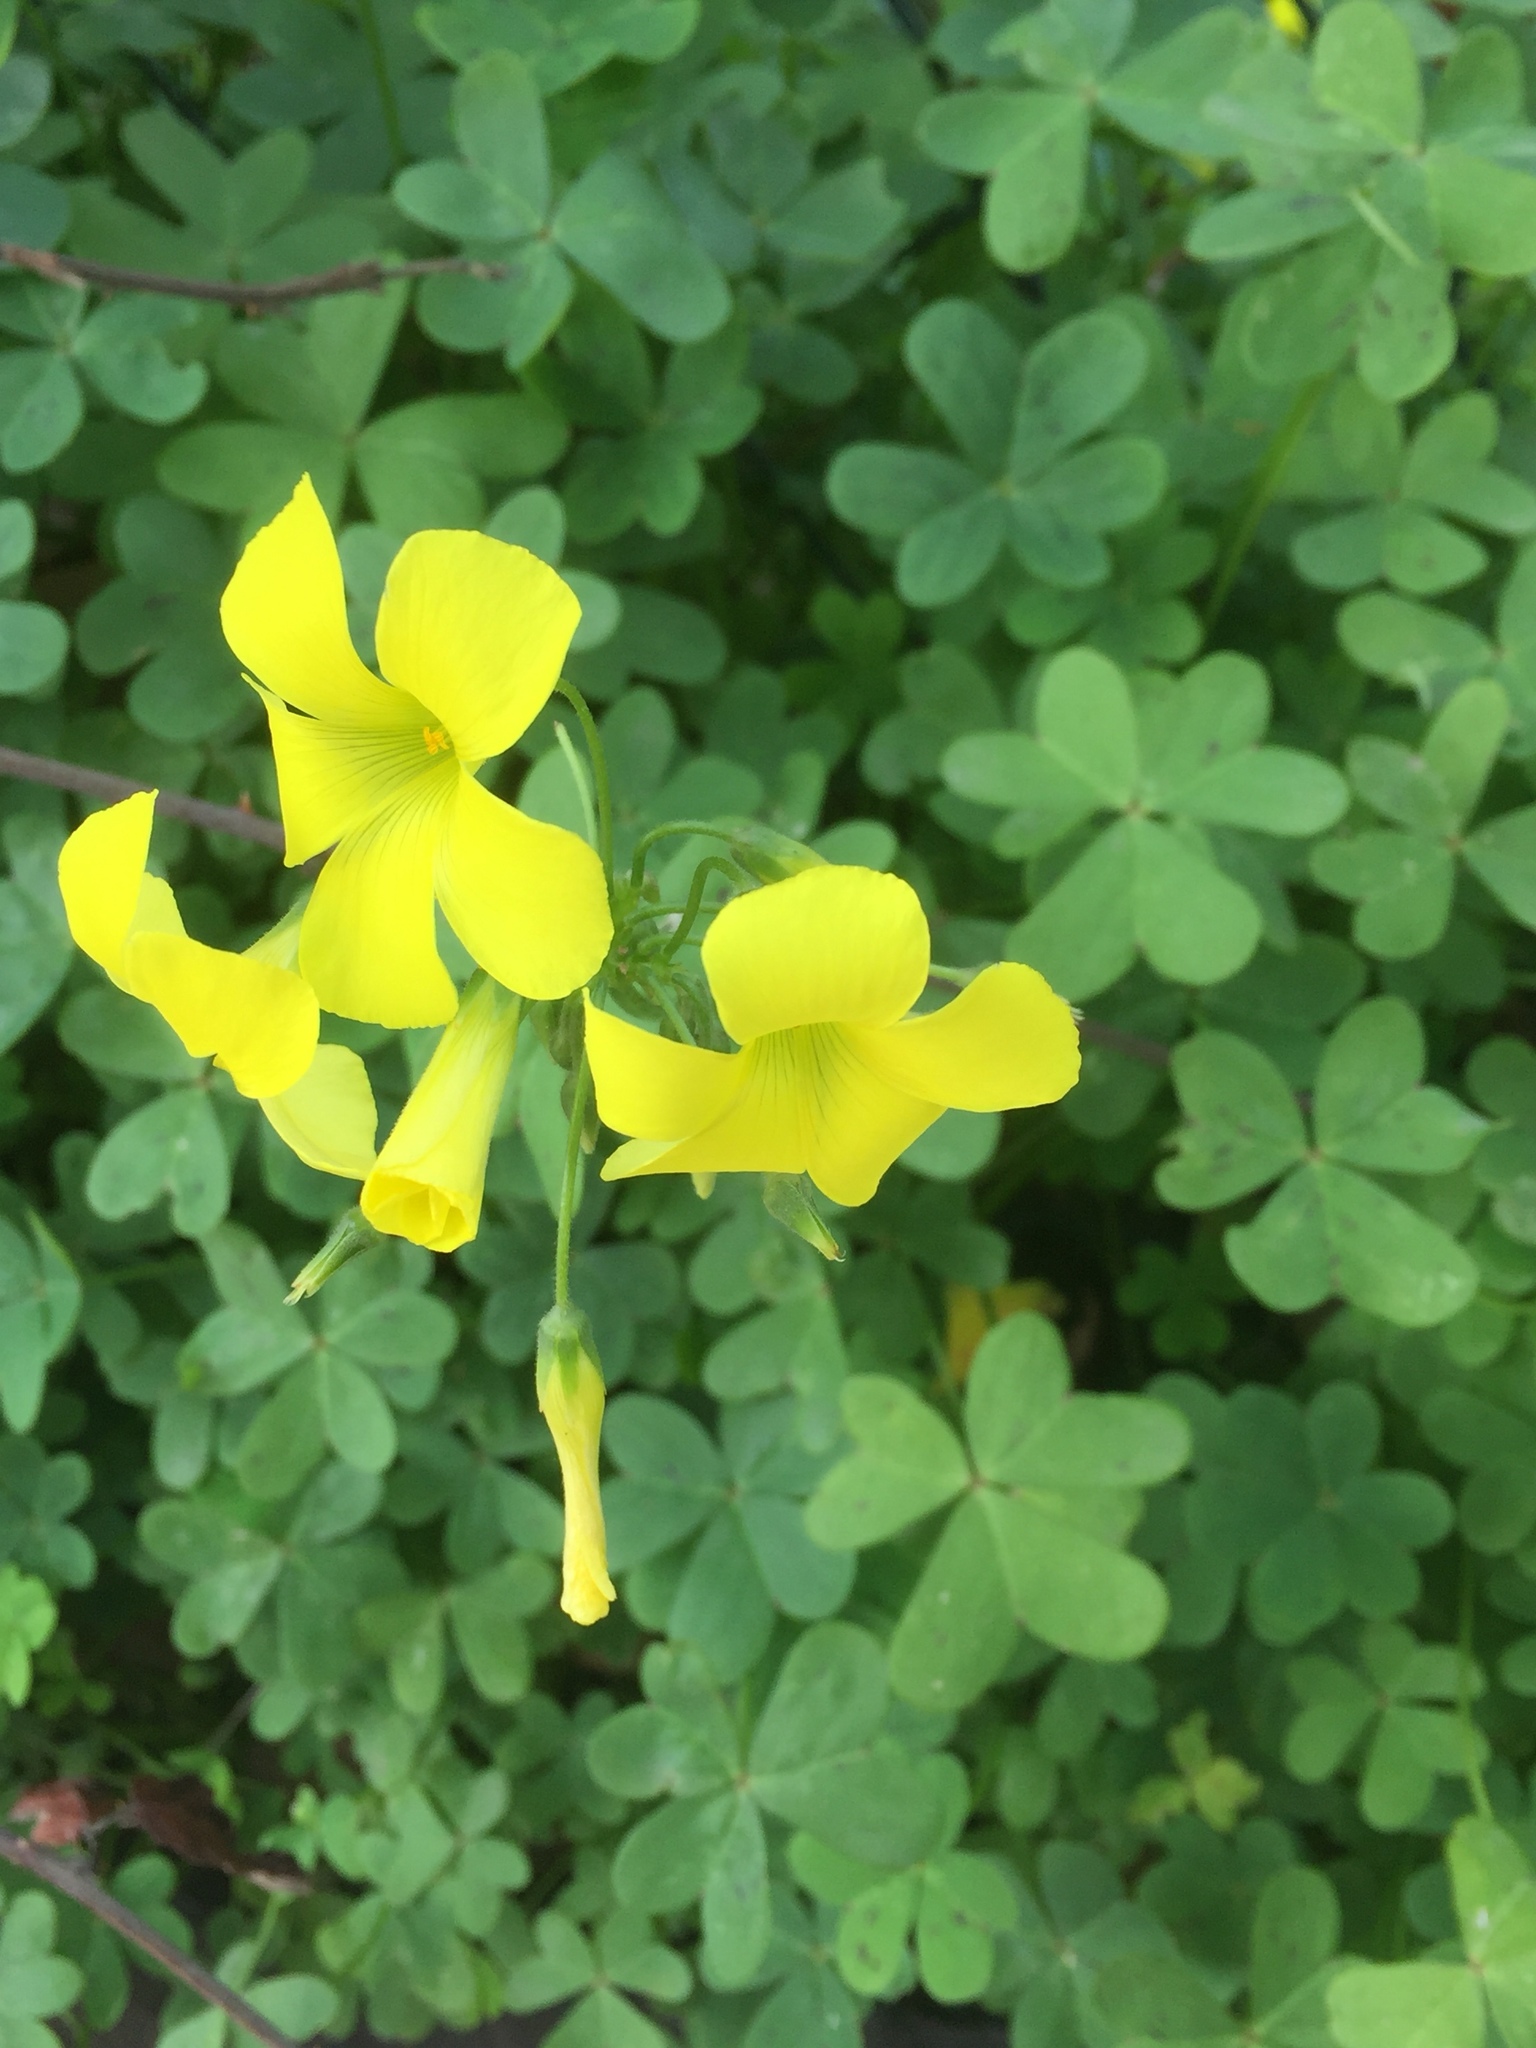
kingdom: Plantae
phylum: Tracheophyta
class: Magnoliopsida
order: Oxalidales
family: Oxalidaceae
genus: Oxalis
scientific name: Oxalis pes-caprae
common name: Bermuda-buttercup
